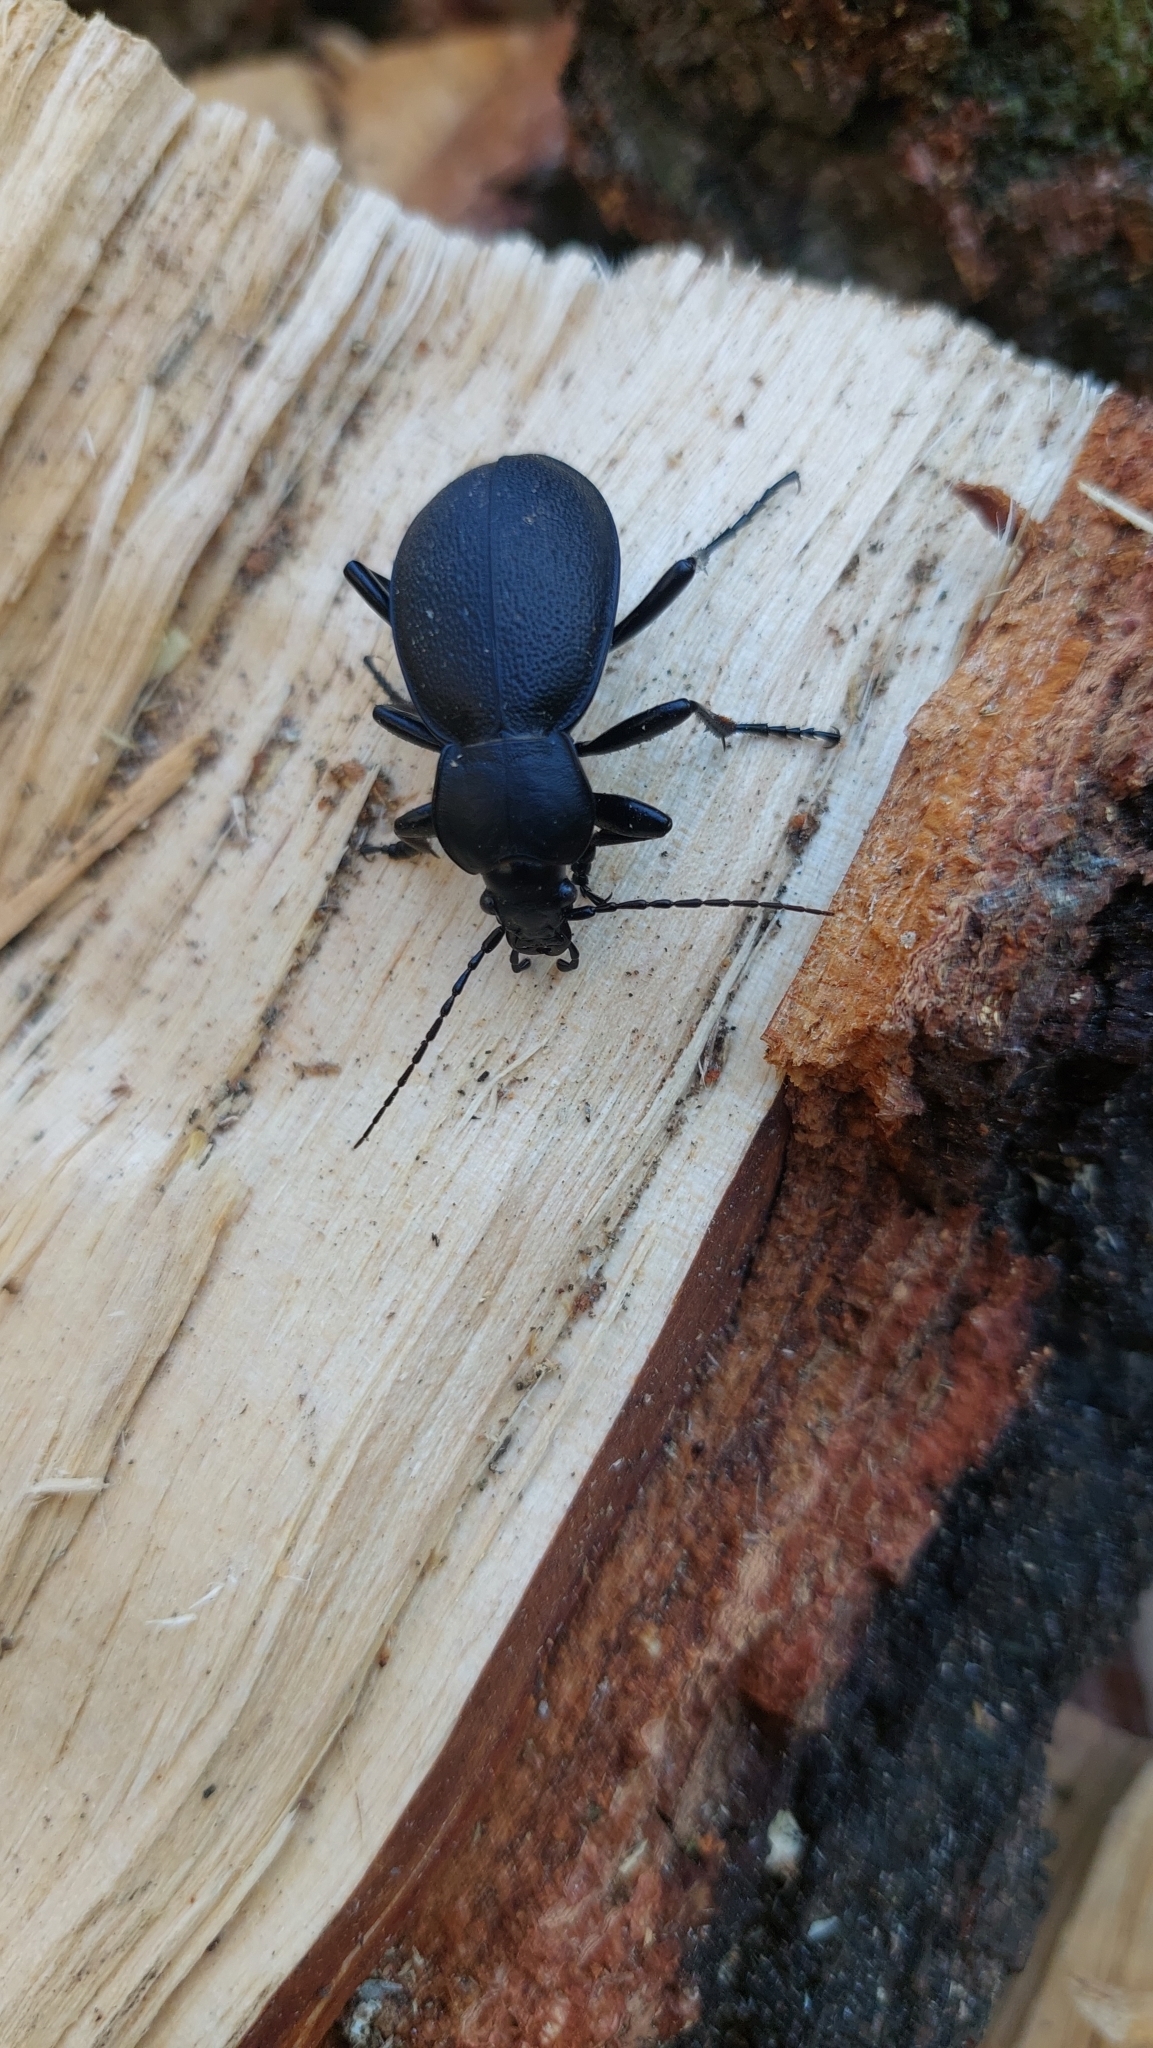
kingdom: Animalia
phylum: Arthropoda
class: Insecta
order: Coleoptera
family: Carabidae
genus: Carabus
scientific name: Carabus coriaceus
